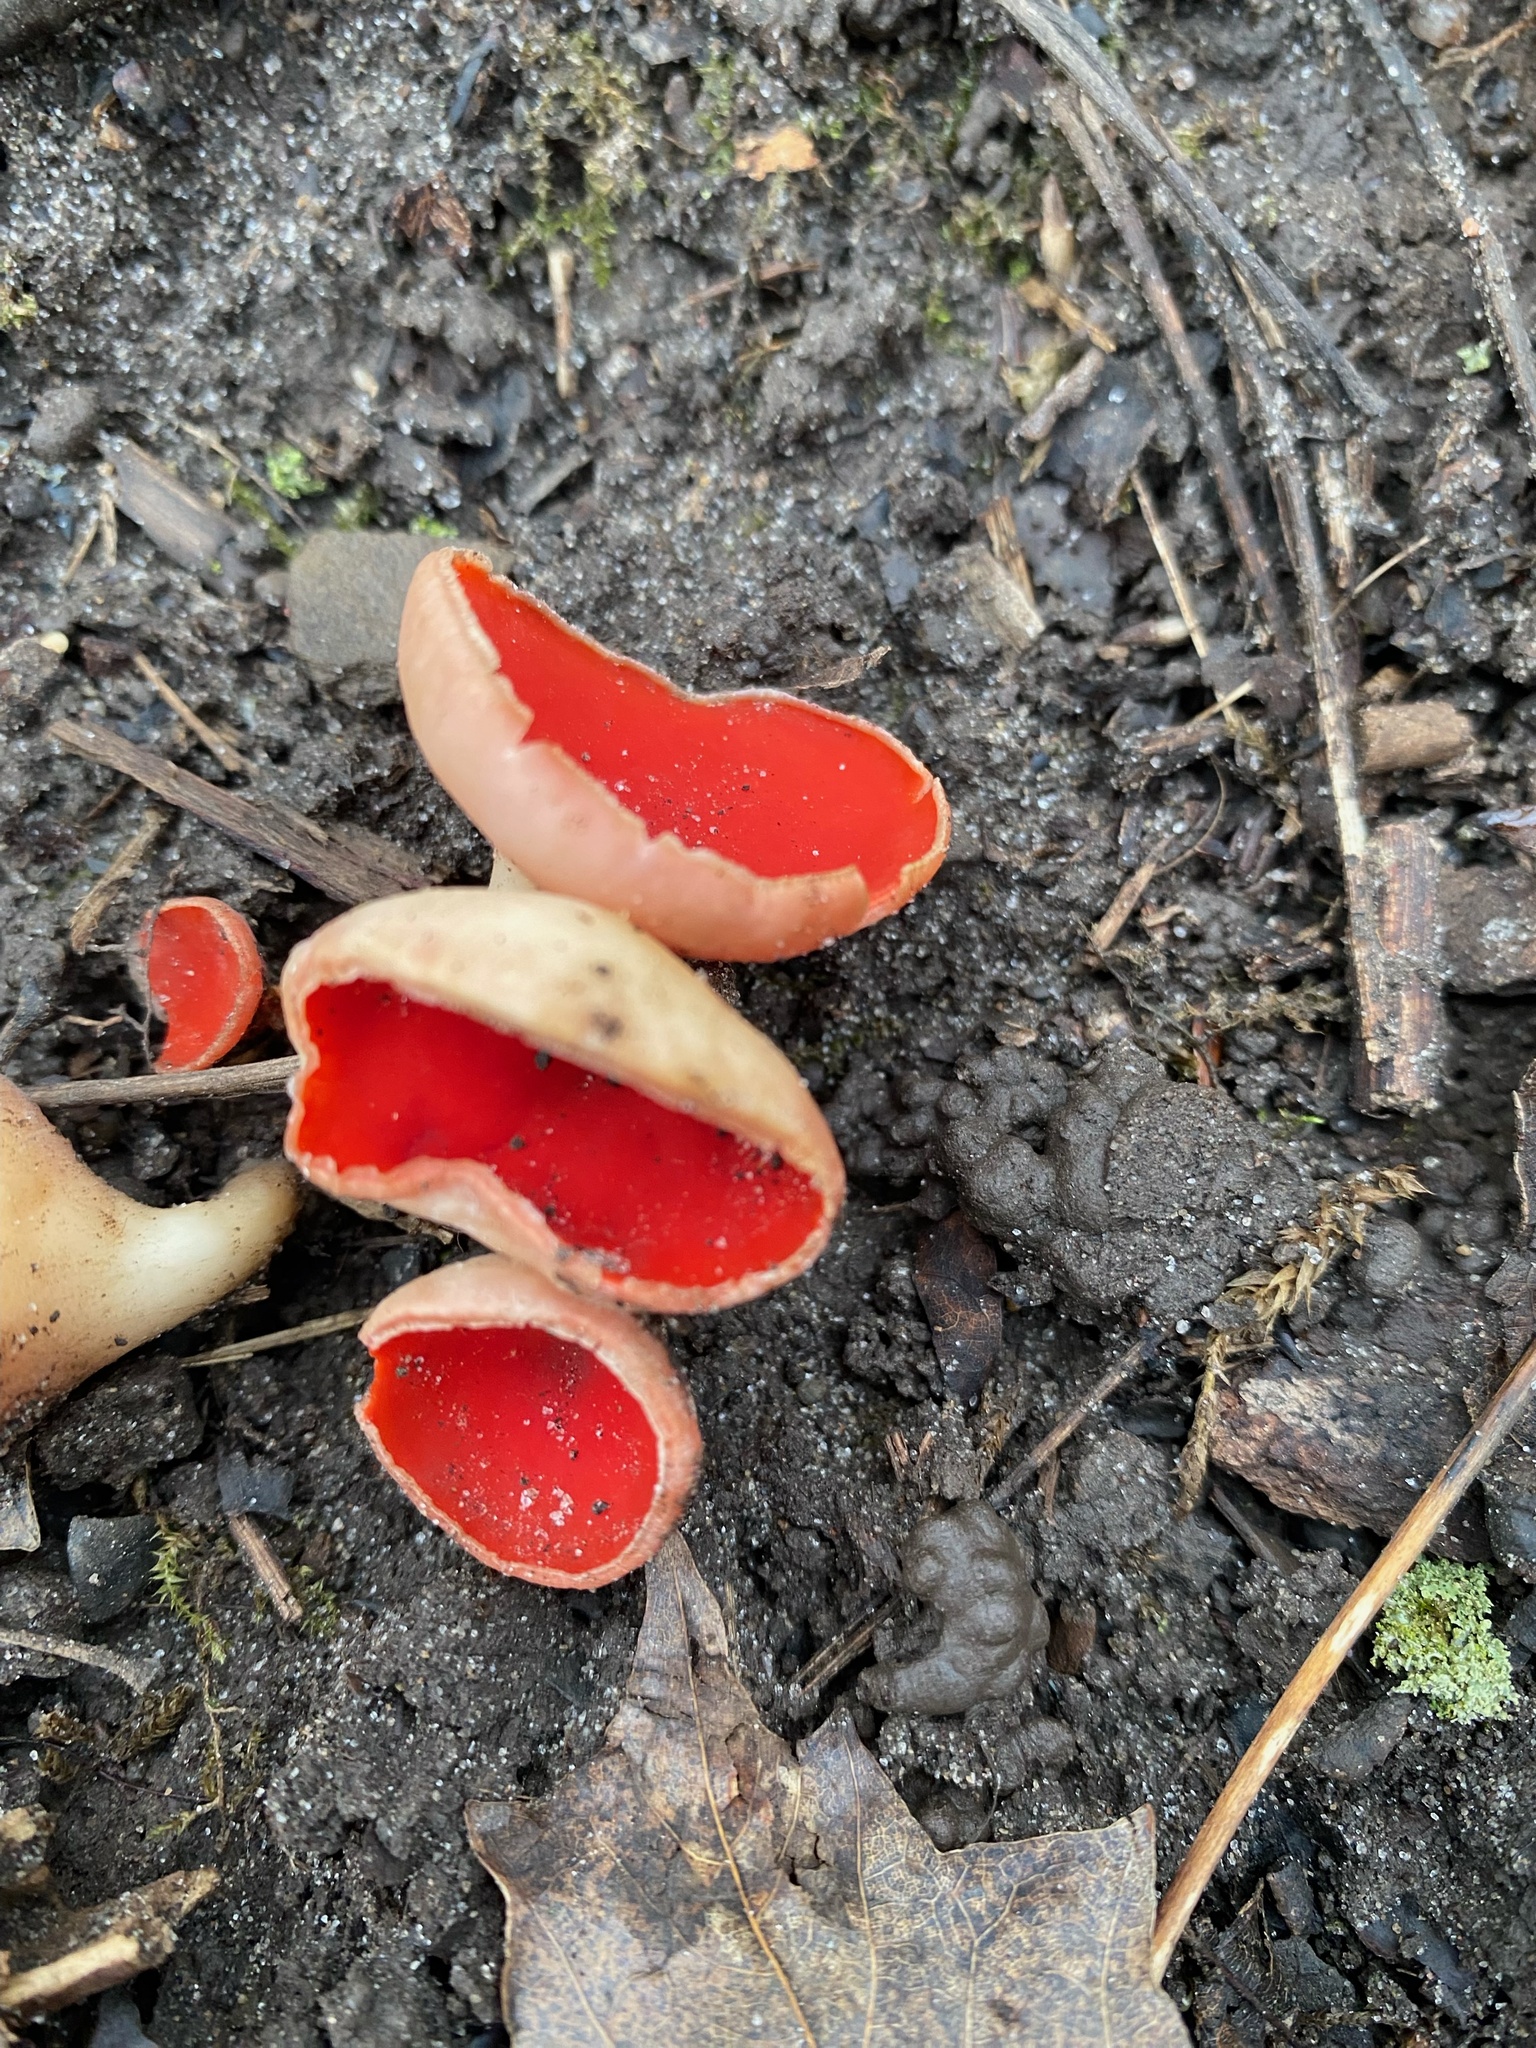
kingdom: Fungi
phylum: Ascomycota
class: Pezizomycetes
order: Pezizales
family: Sarcoscyphaceae
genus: Sarcoscypha
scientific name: Sarcoscypha austriaca
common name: Scarlet elfcup
